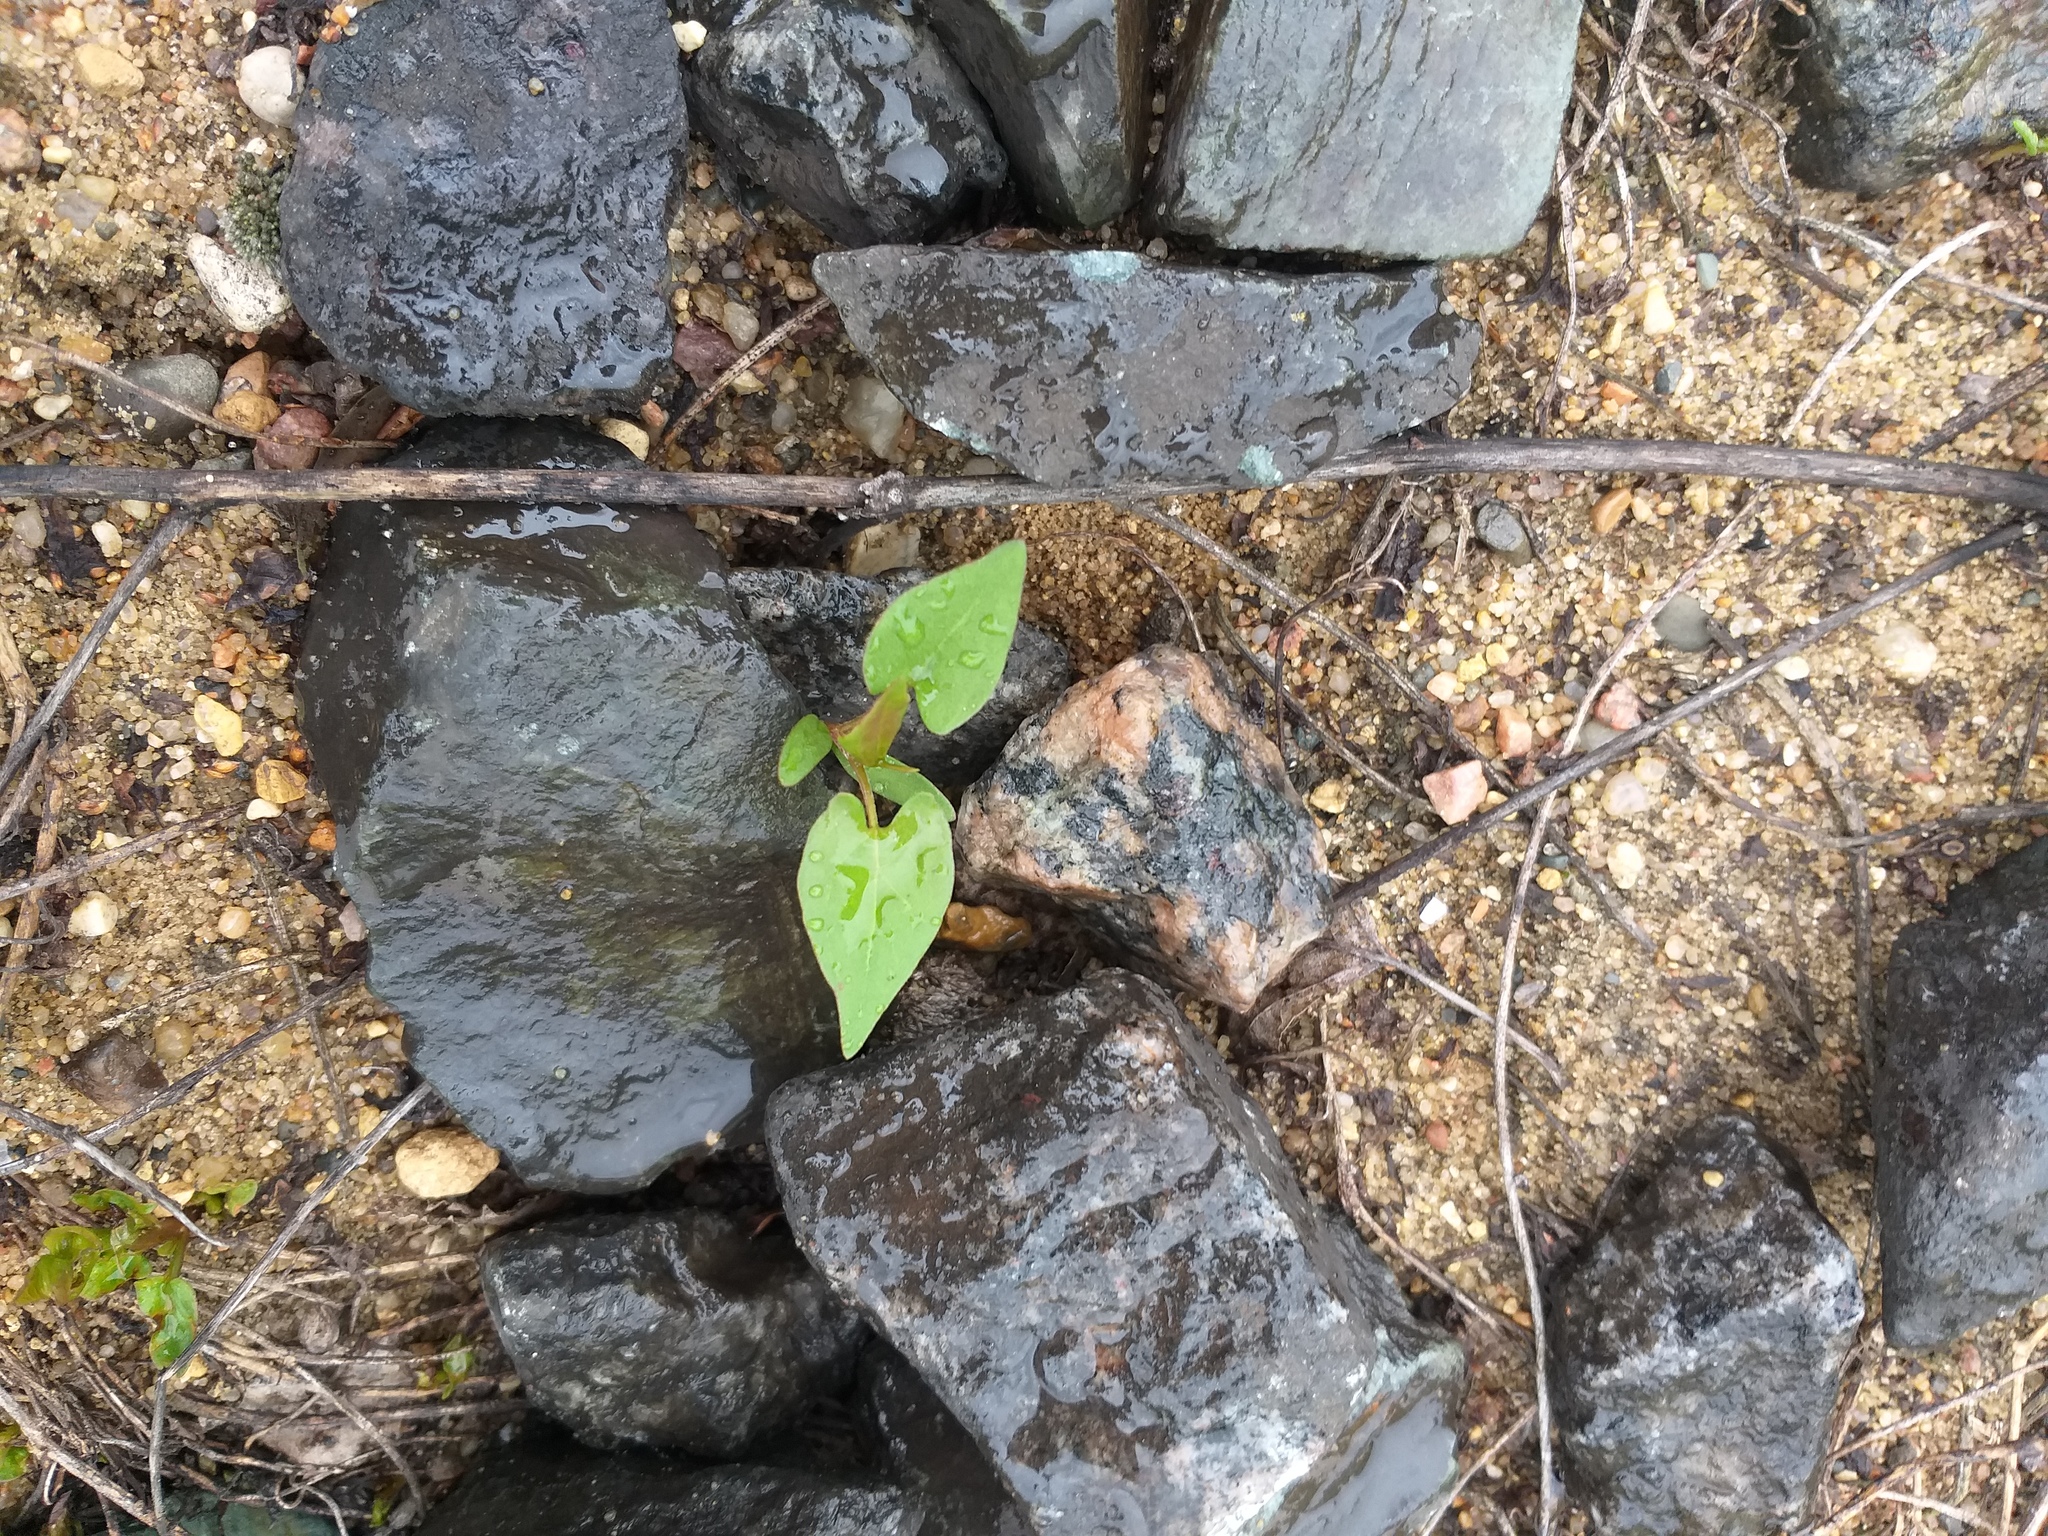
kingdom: Plantae
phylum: Tracheophyta
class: Magnoliopsida
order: Caryophyllales
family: Polygonaceae
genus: Fallopia
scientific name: Fallopia convolvulus
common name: Black bindweed
